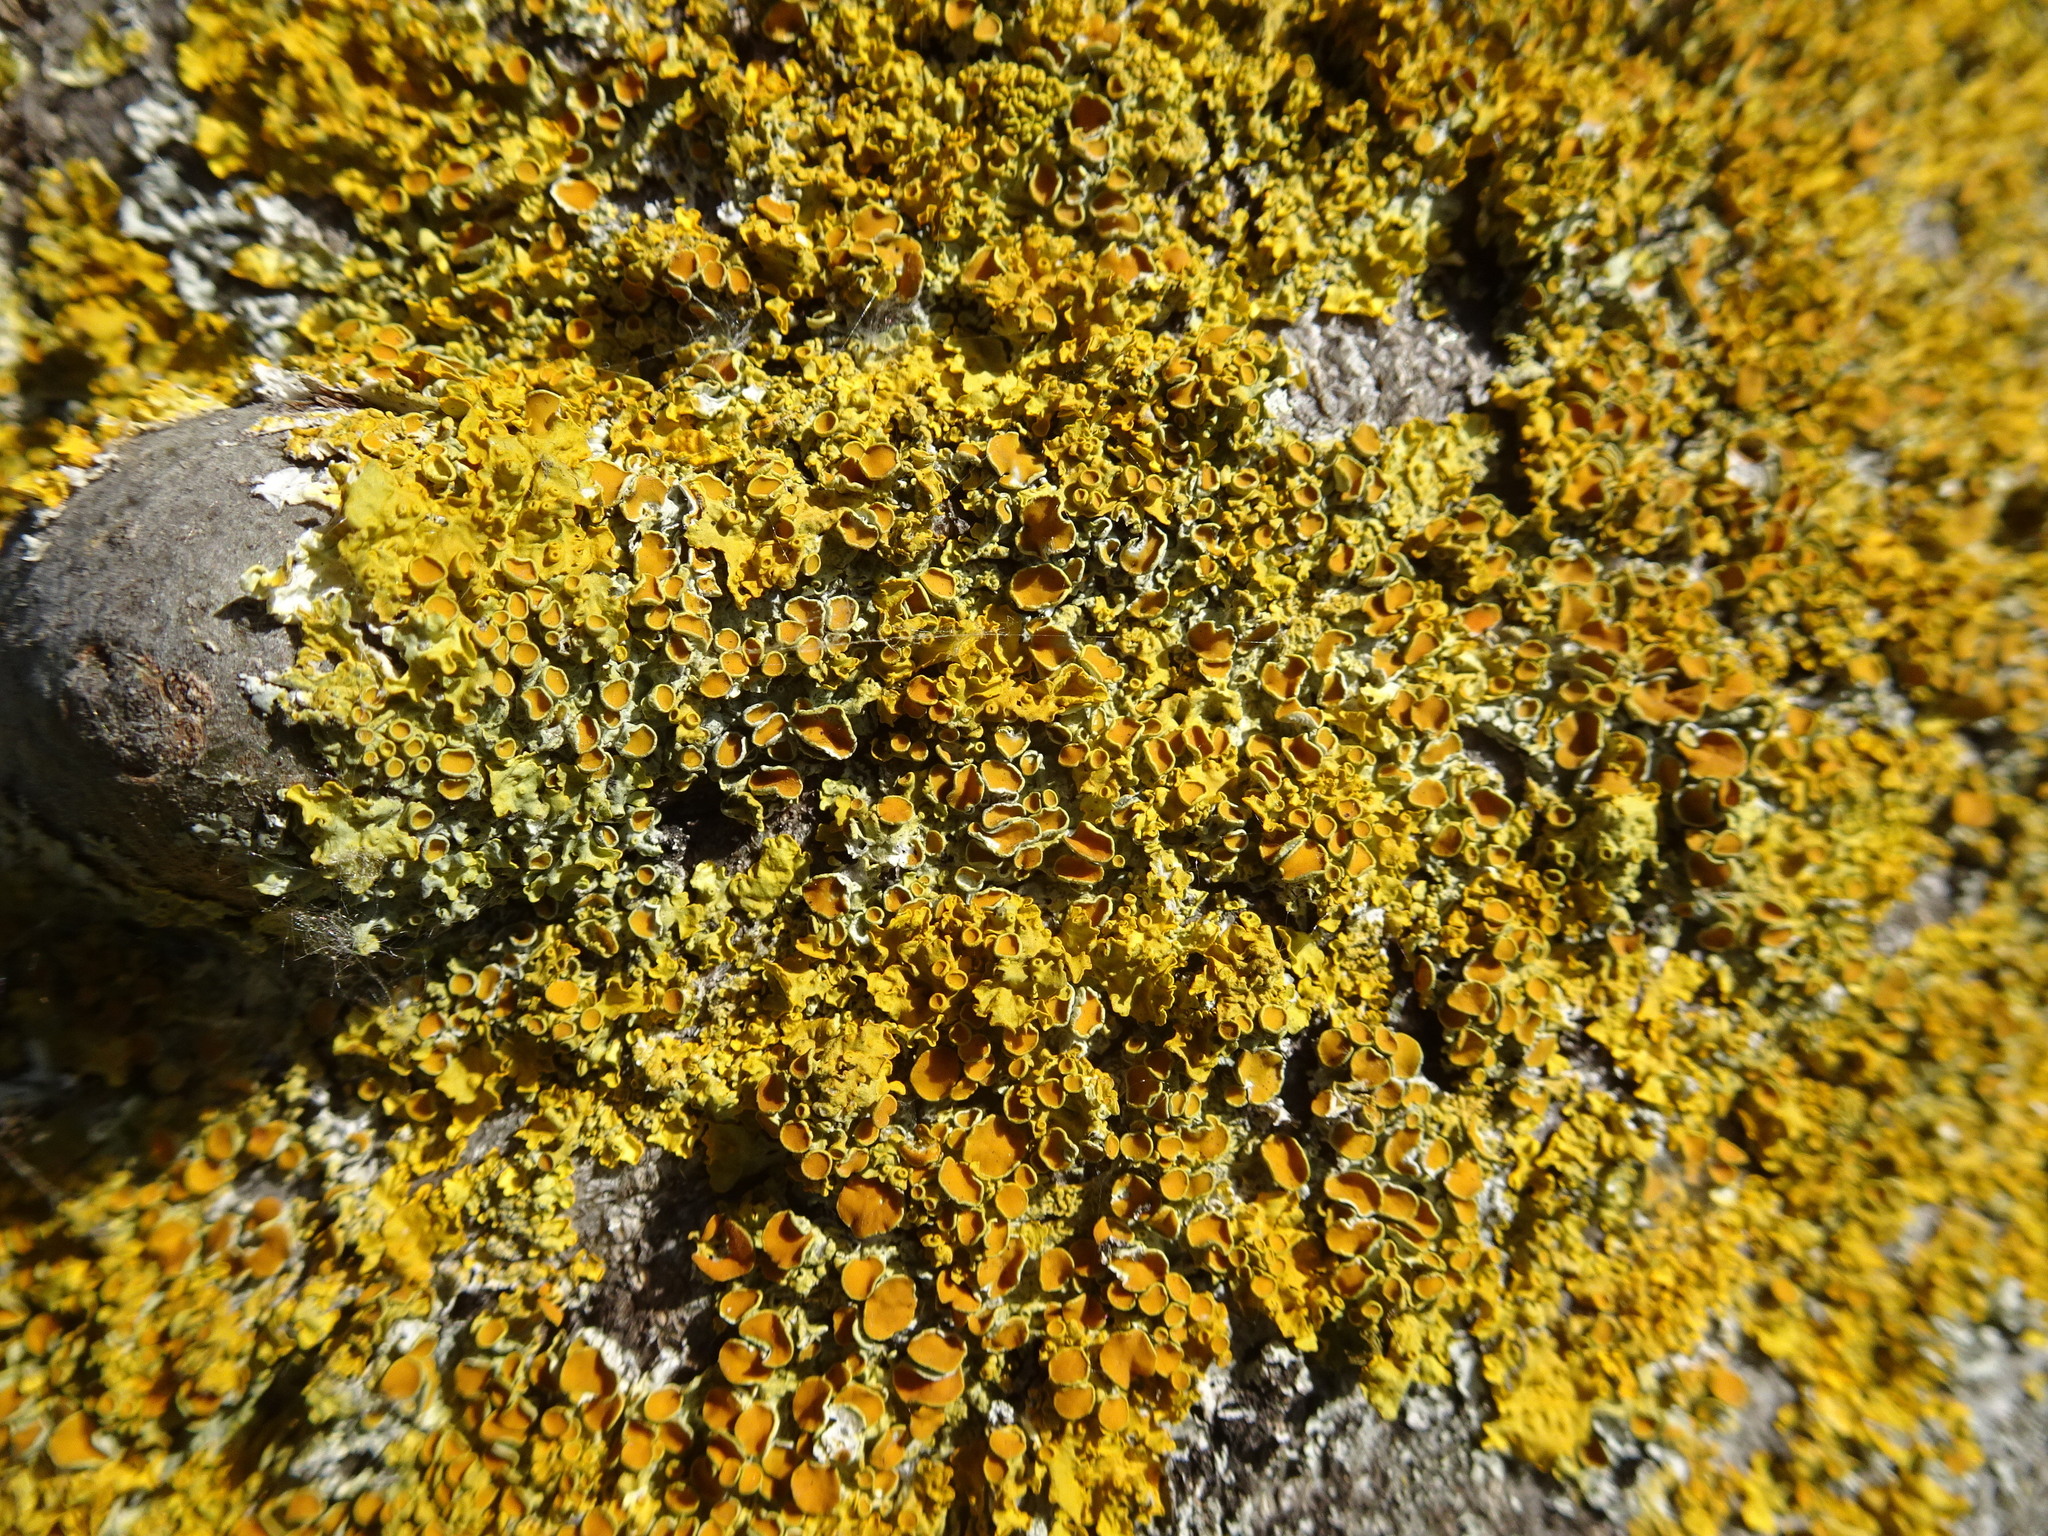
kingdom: Fungi
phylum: Ascomycota
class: Lecanoromycetes
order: Teloschistales
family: Teloschistaceae
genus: Xanthoria
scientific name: Xanthoria parietina
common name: Common orange lichen
